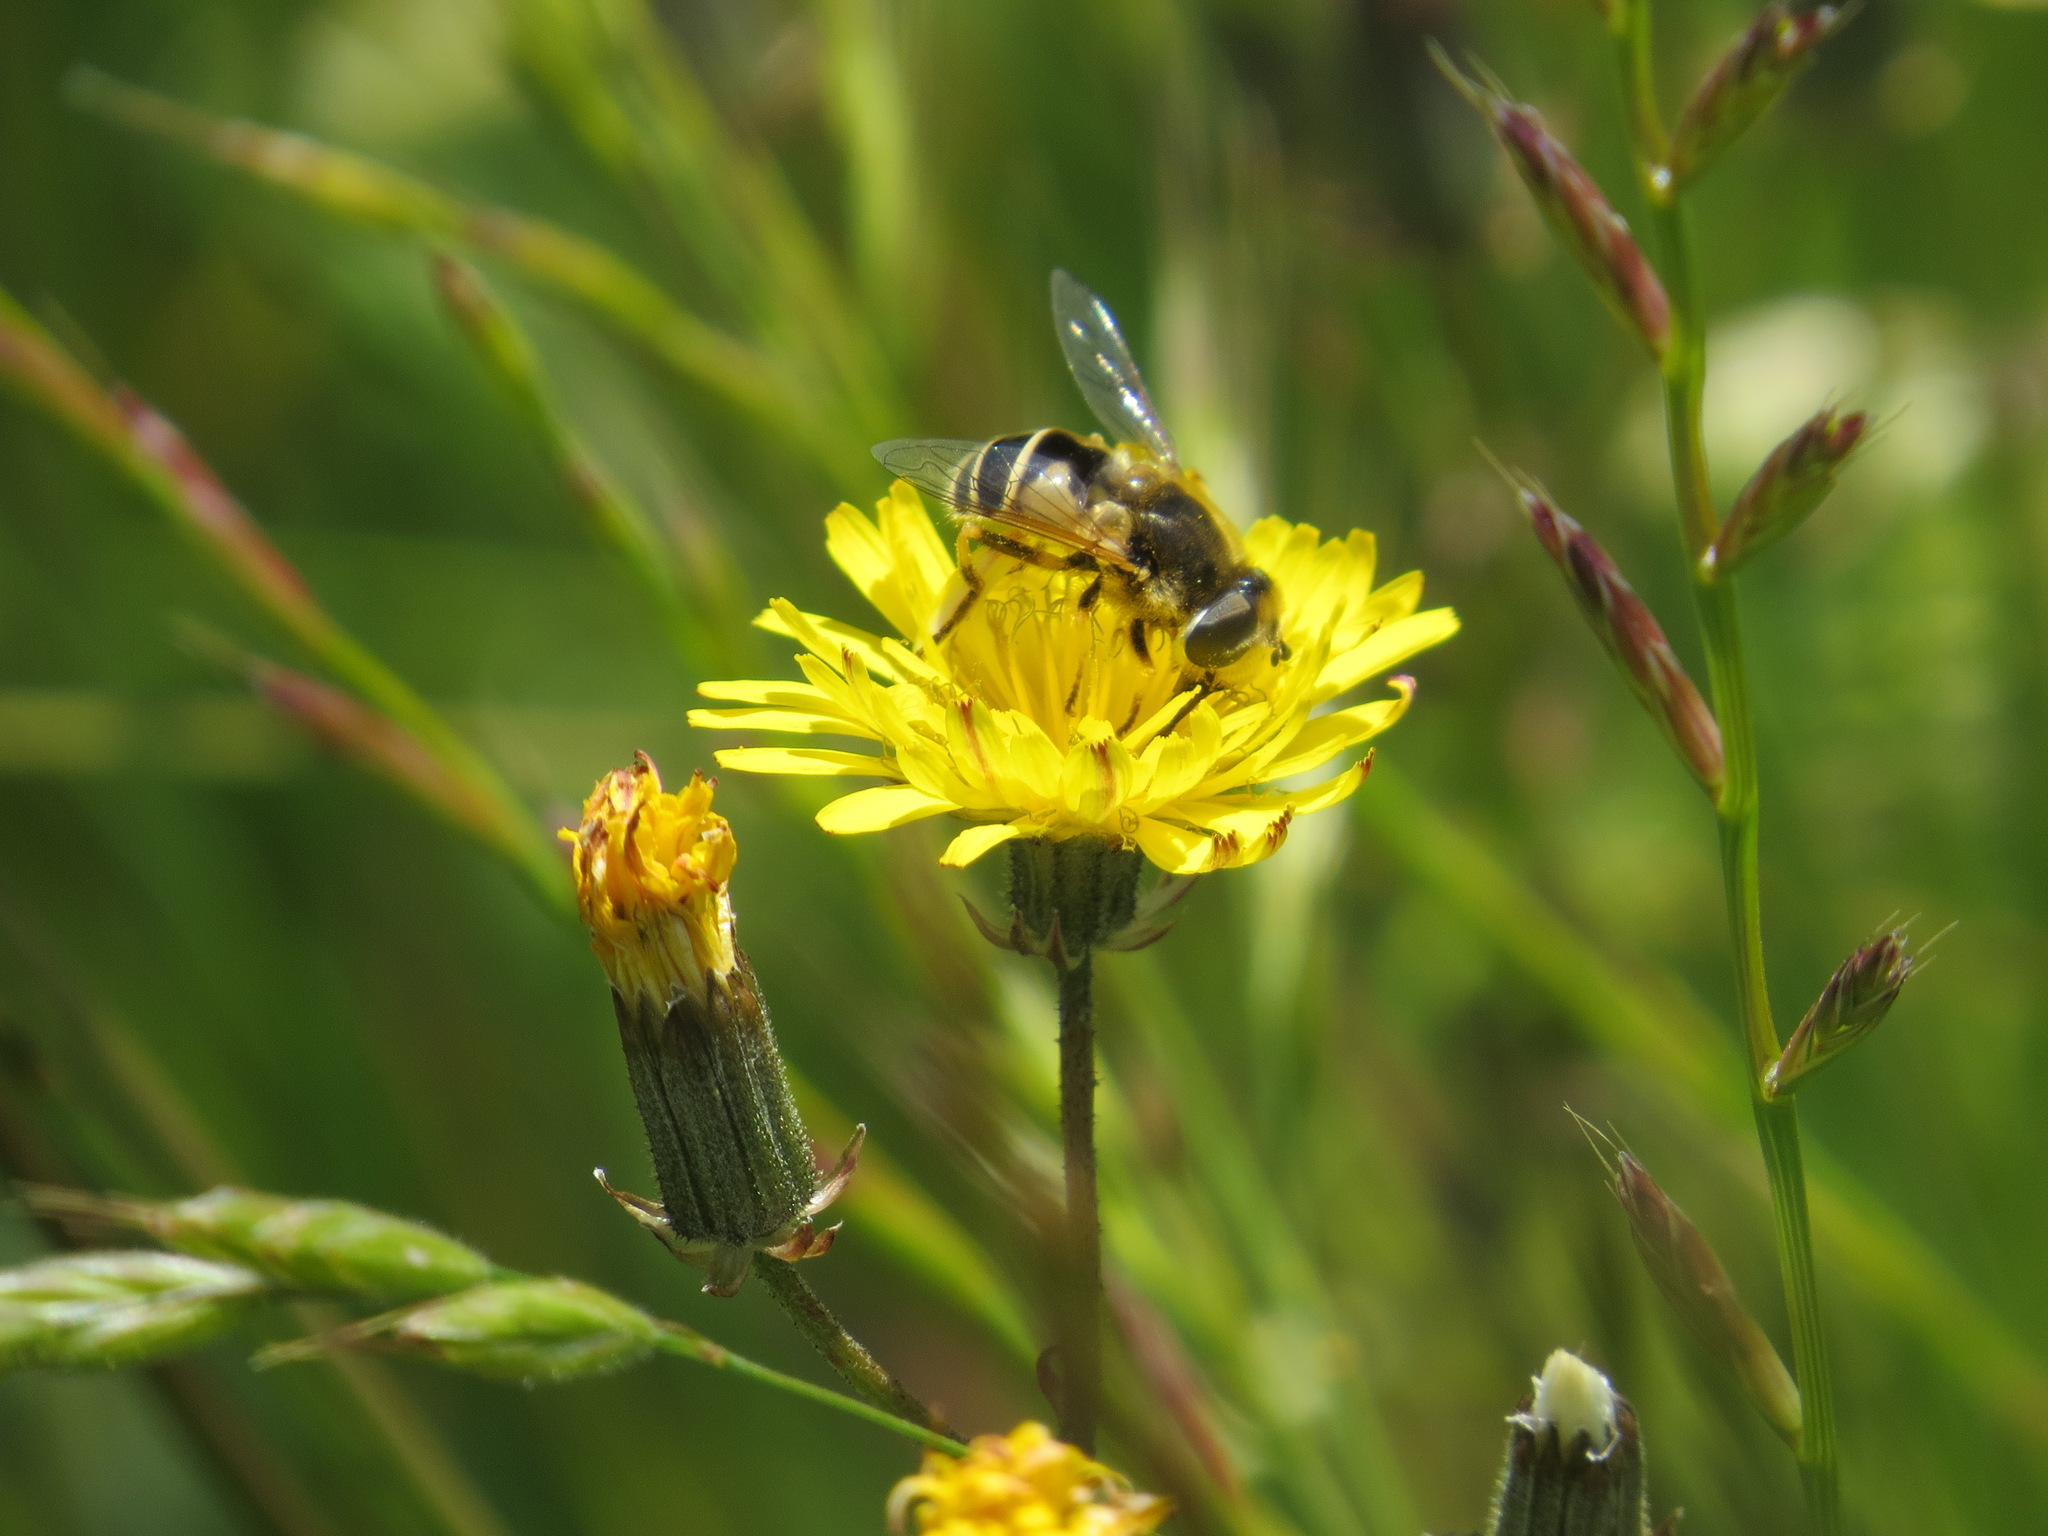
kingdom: Animalia
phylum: Arthropoda
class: Insecta
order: Diptera
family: Syrphidae
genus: Eristalis
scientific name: Eristalis hirta
